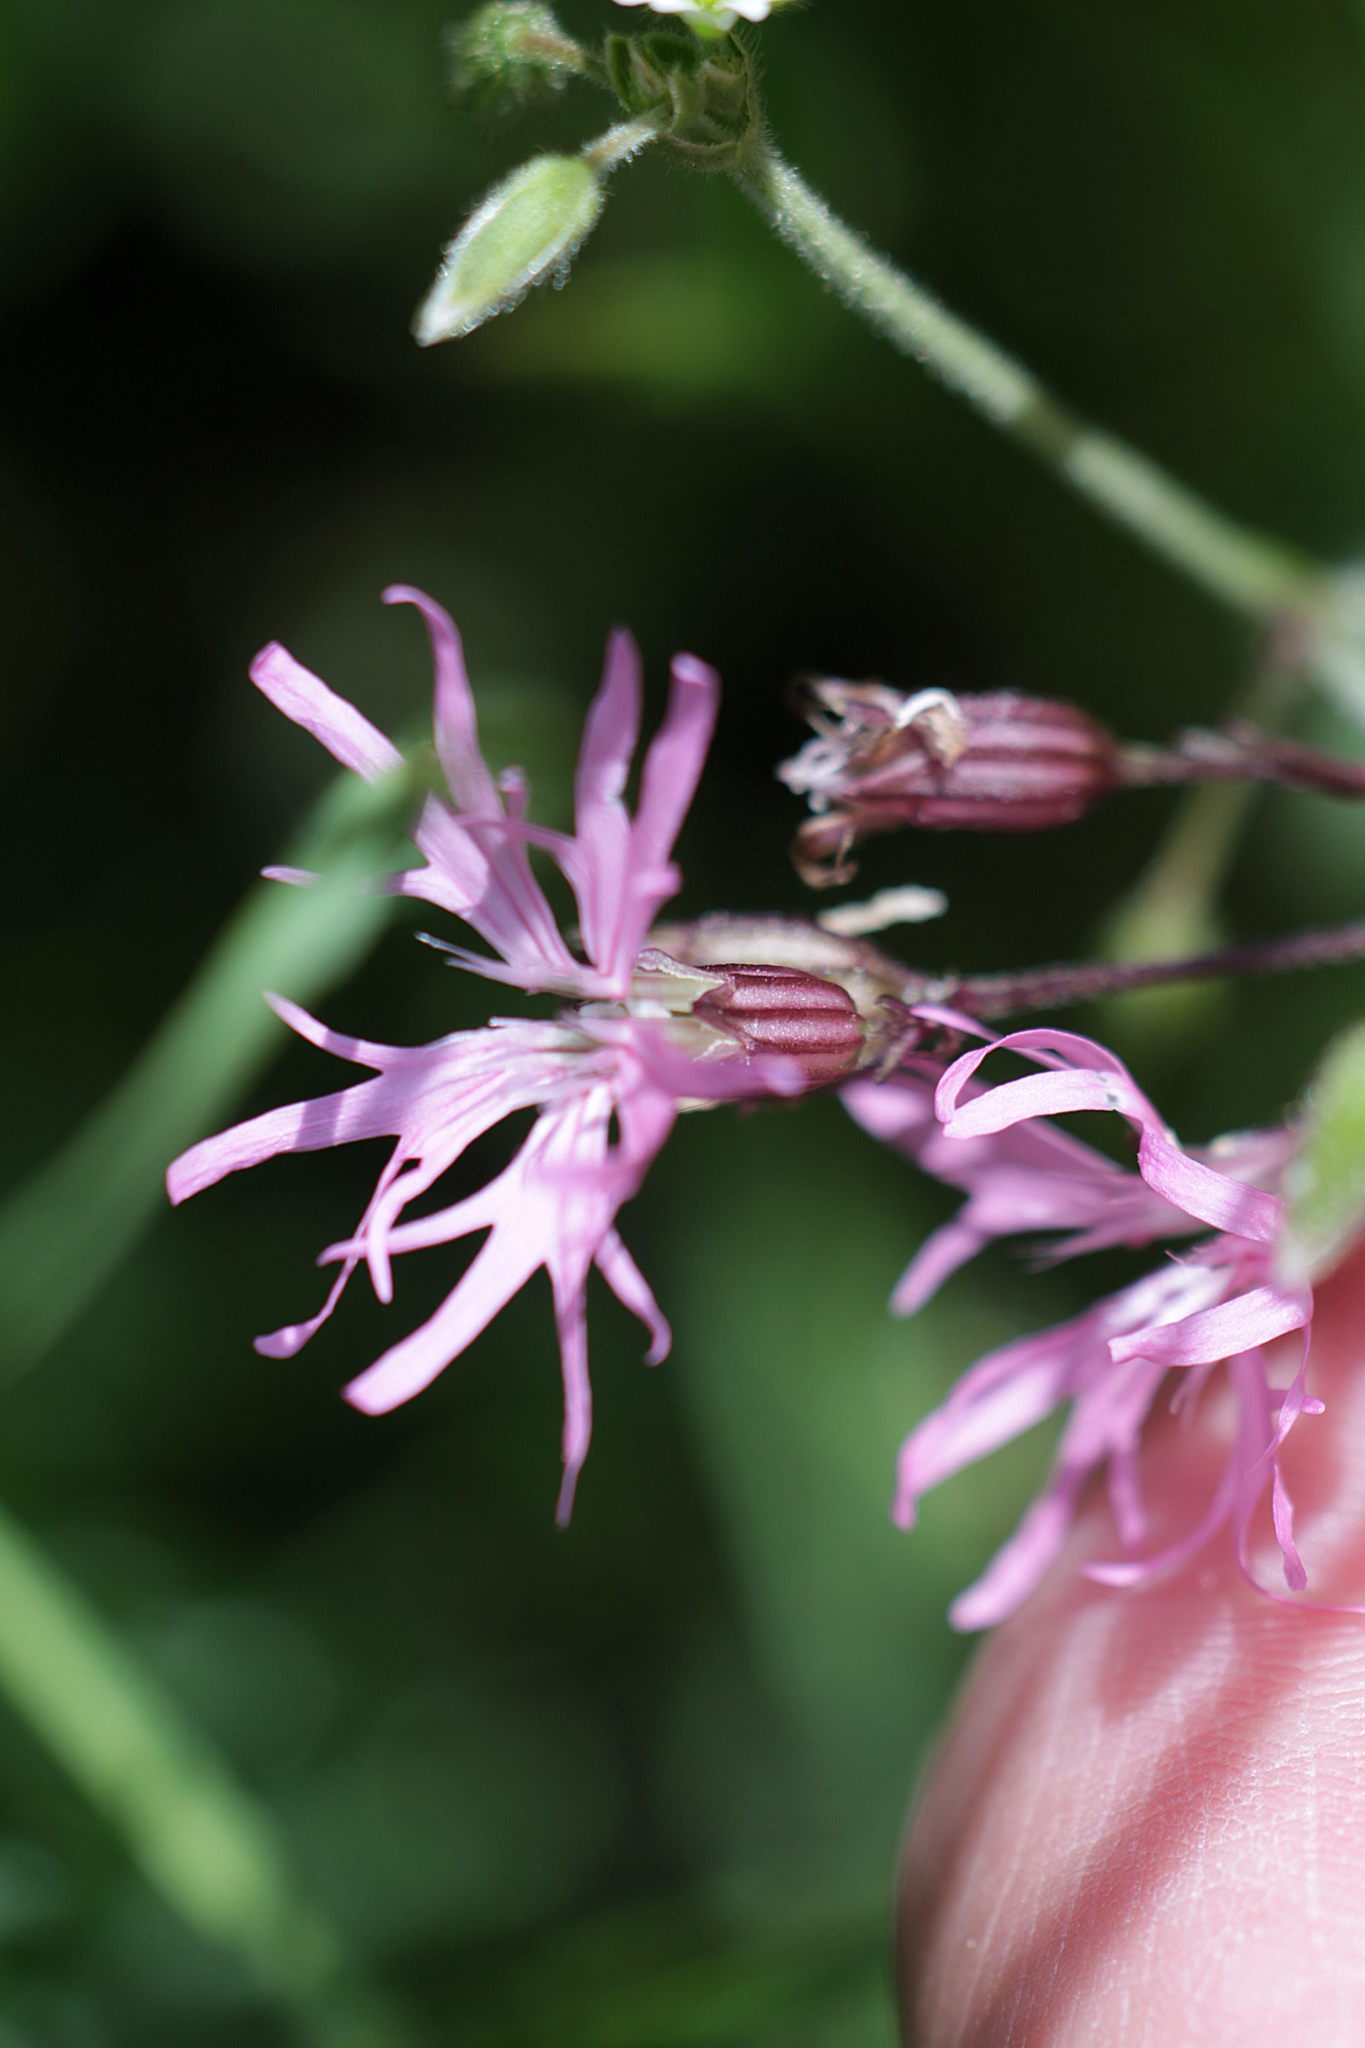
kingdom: Plantae
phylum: Tracheophyta
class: Magnoliopsida
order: Caryophyllales
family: Caryophyllaceae
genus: Silene
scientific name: Silene flos-cuculi
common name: Ragged-robin
